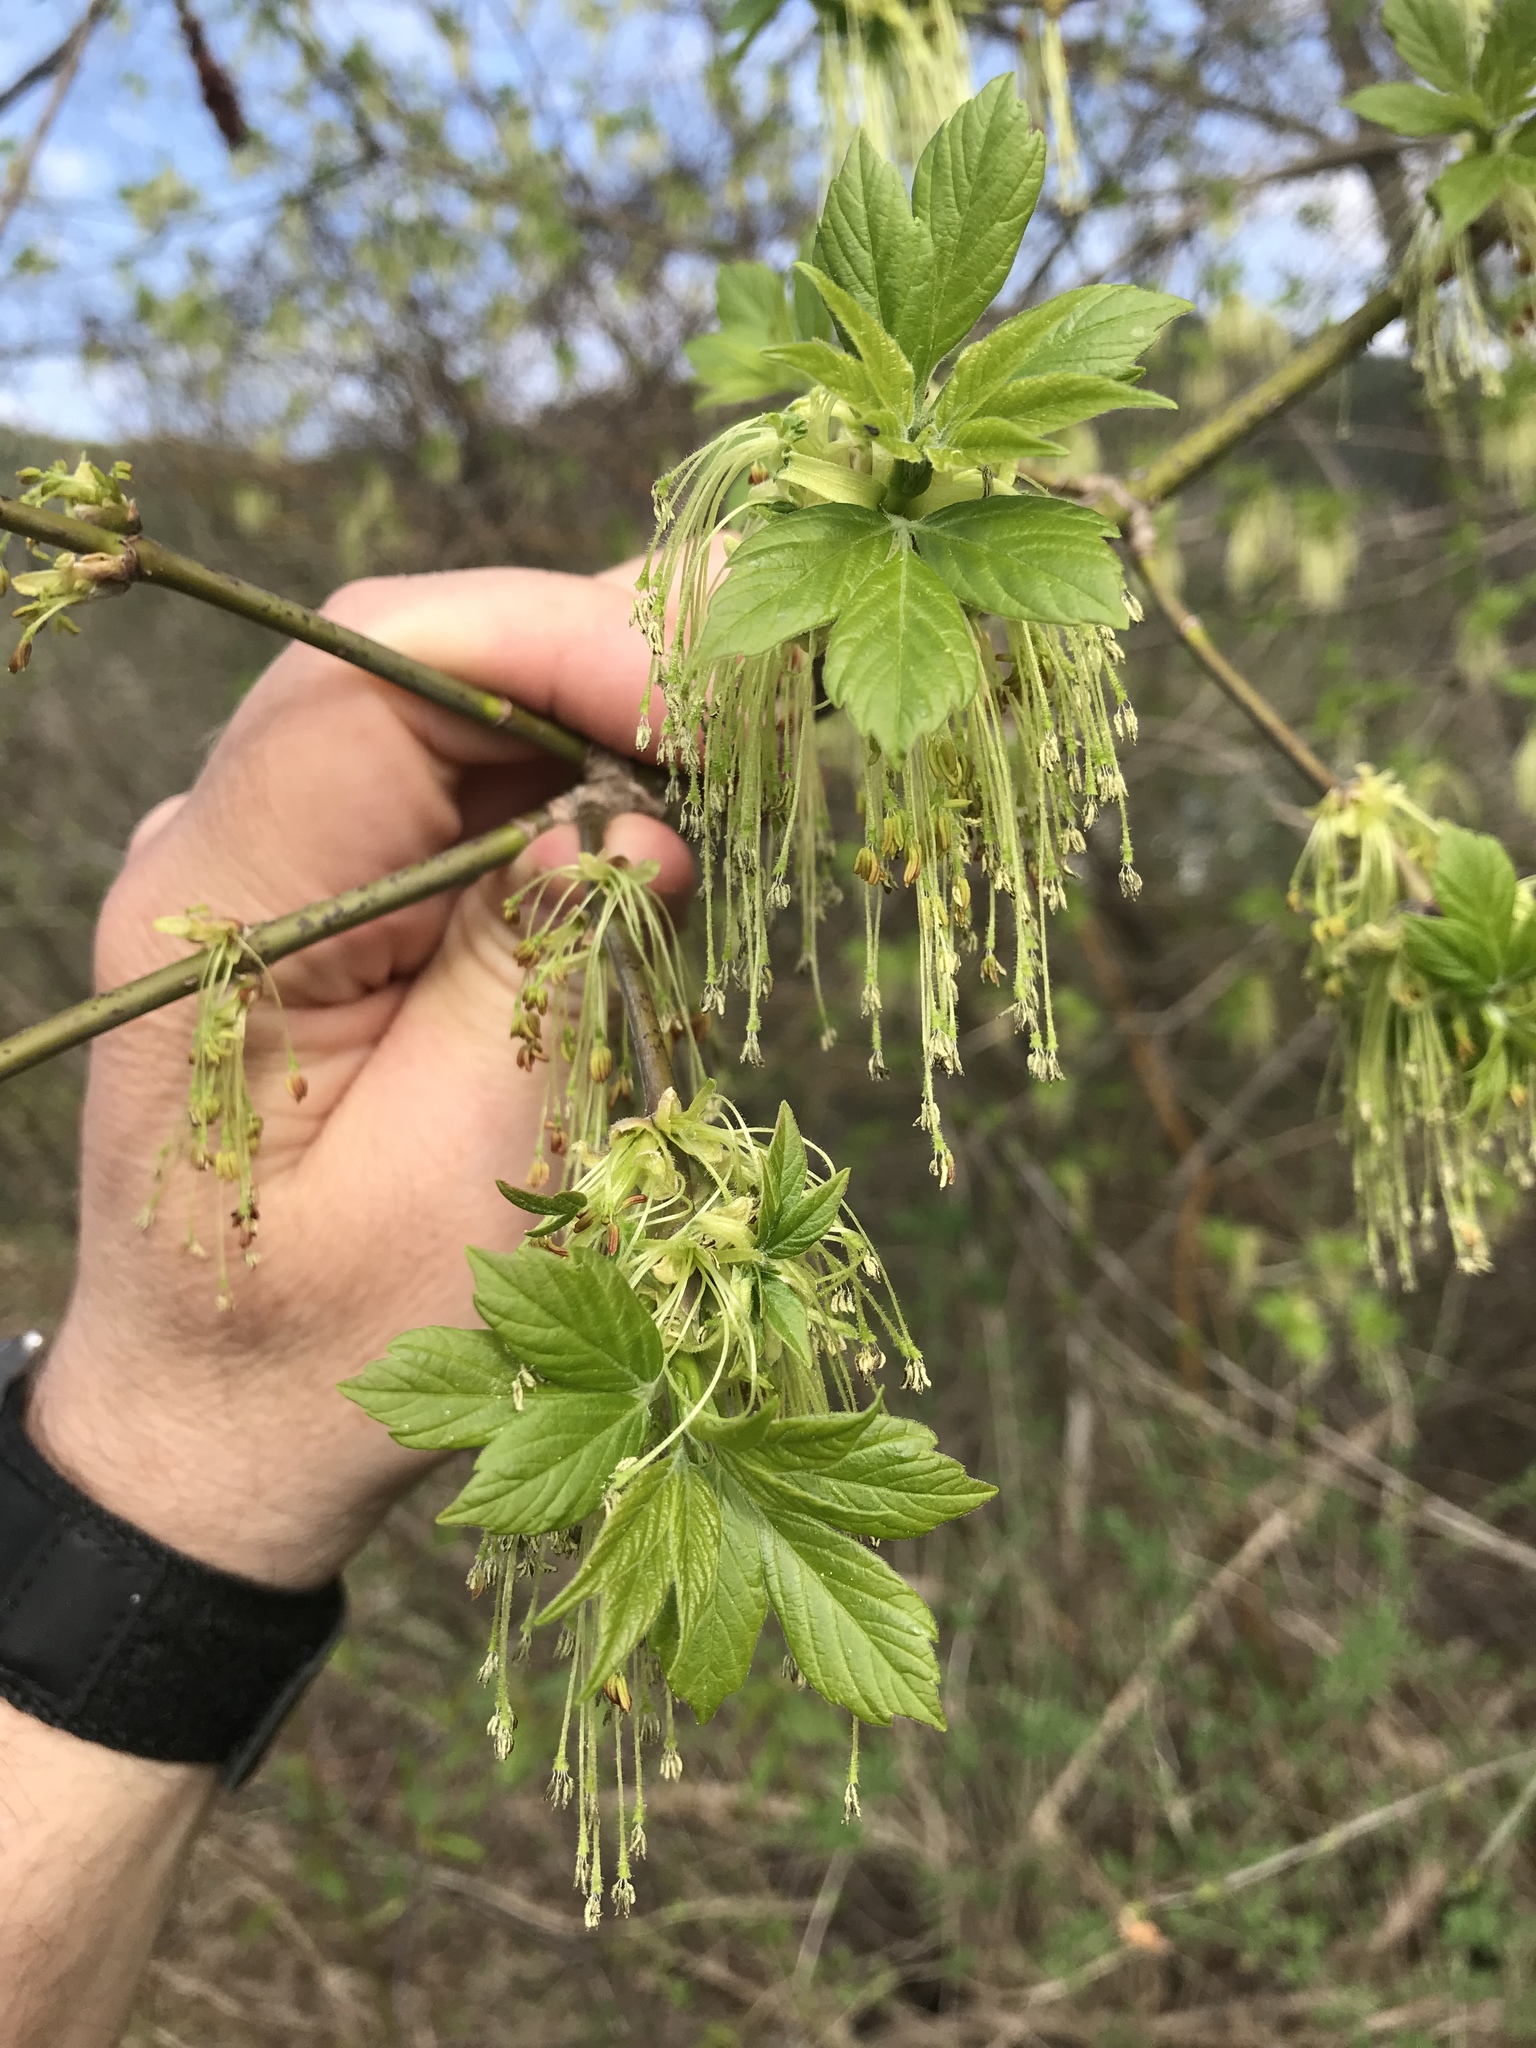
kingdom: Plantae
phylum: Tracheophyta
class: Magnoliopsida
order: Sapindales
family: Sapindaceae
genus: Acer
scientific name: Acer negundo
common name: Ashleaf maple
